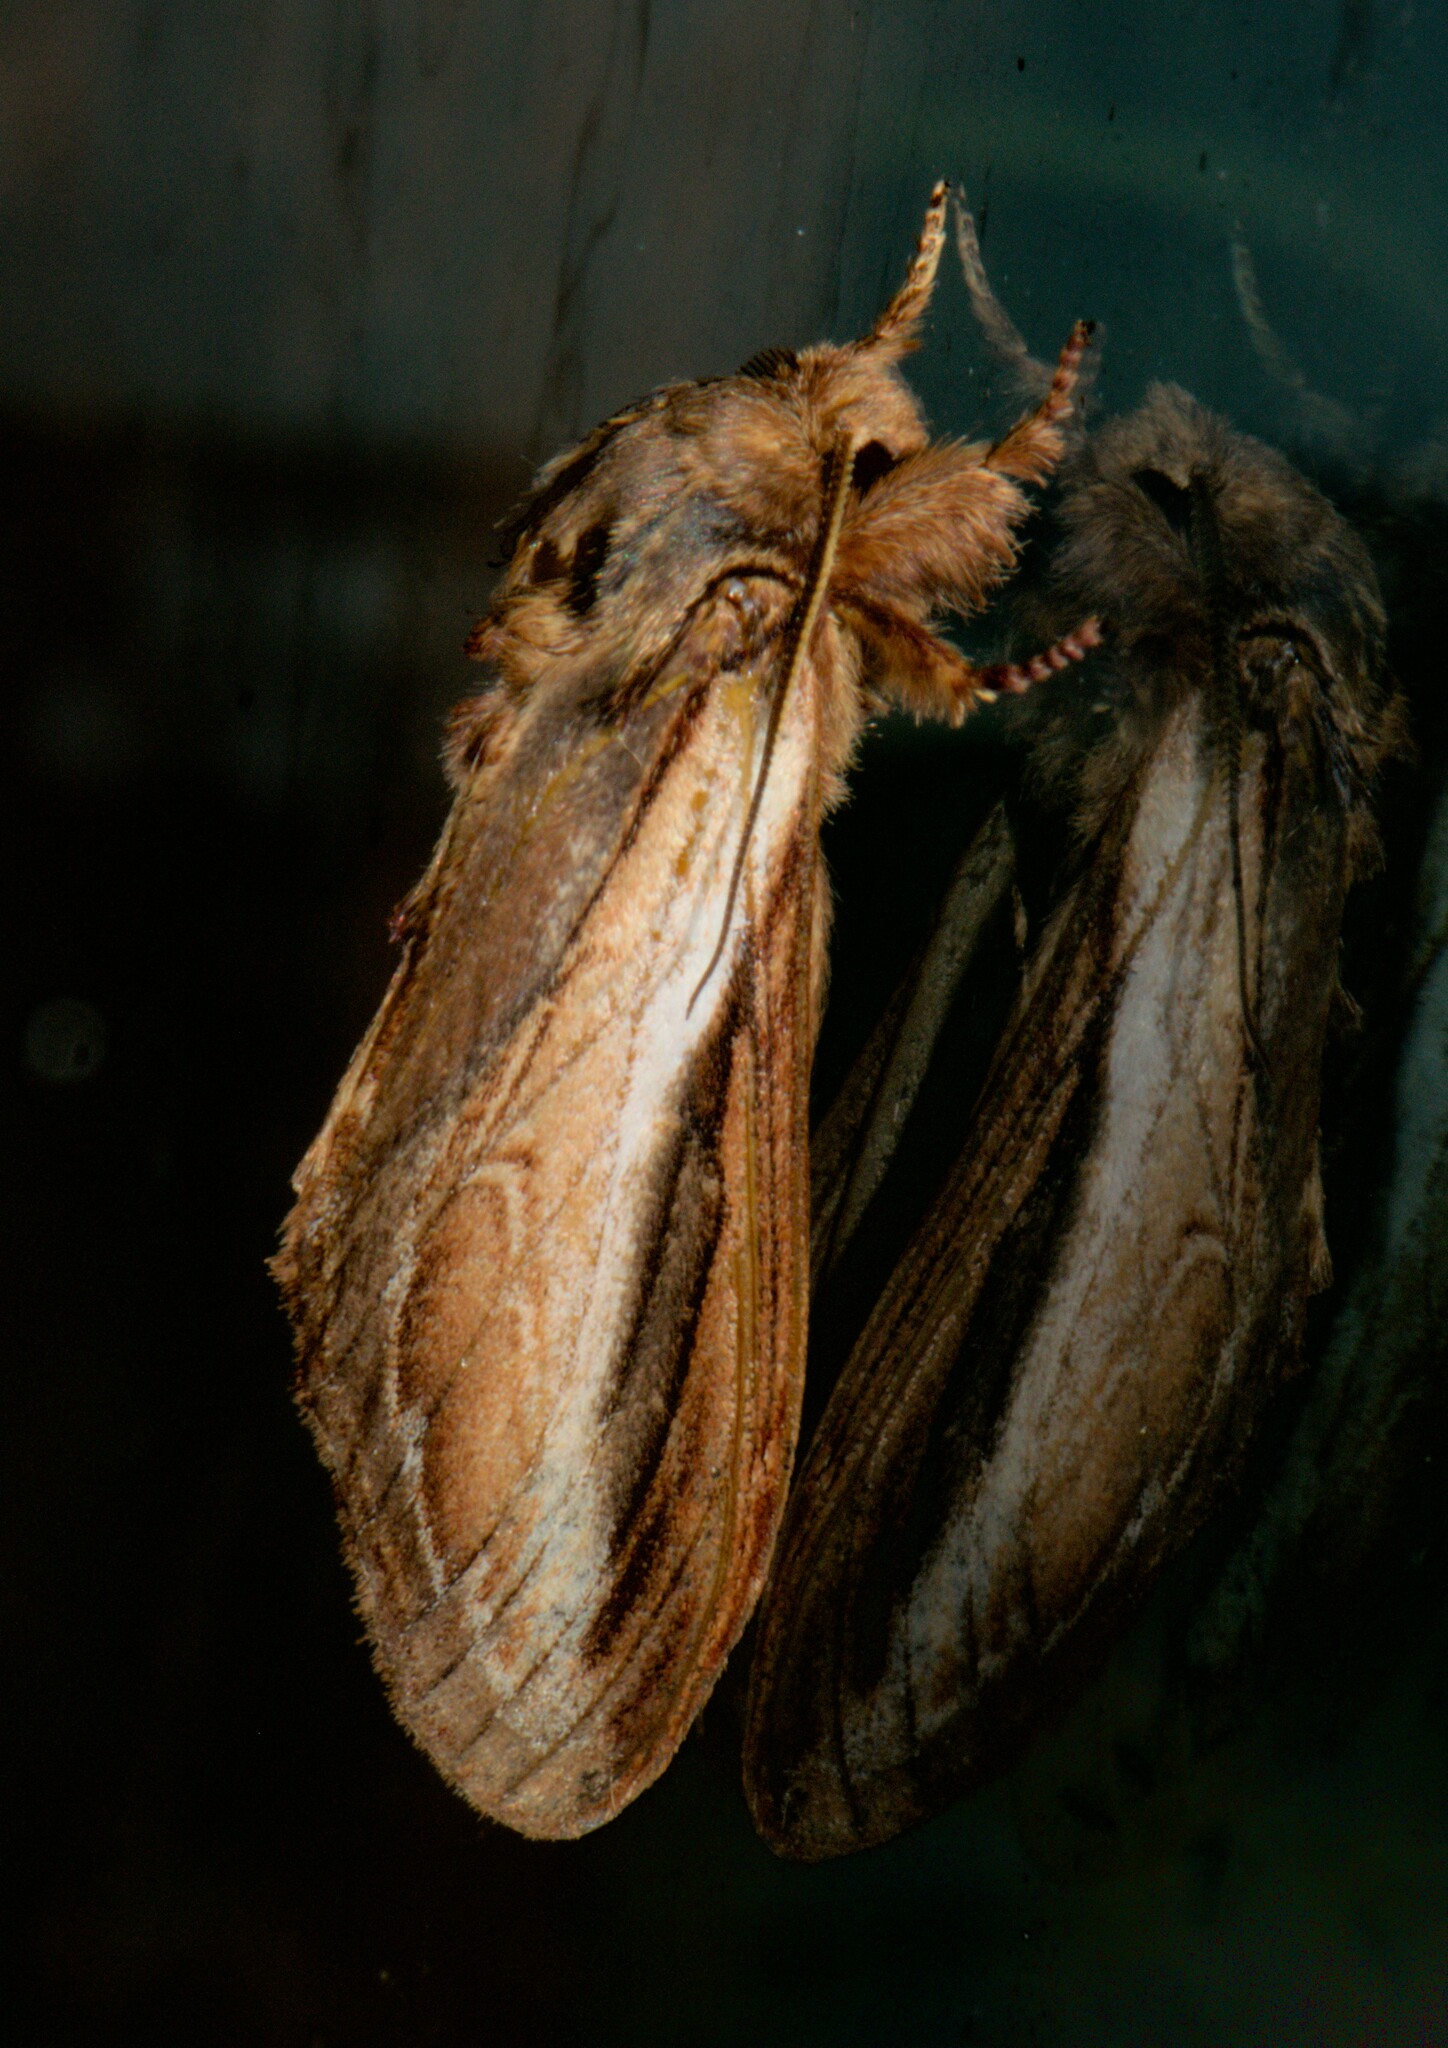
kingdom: Animalia
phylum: Arthropoda
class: Insecta
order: Lepidoptera
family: Notodontidae
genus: Acmeshachia
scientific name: Acmeshachia albifascia
